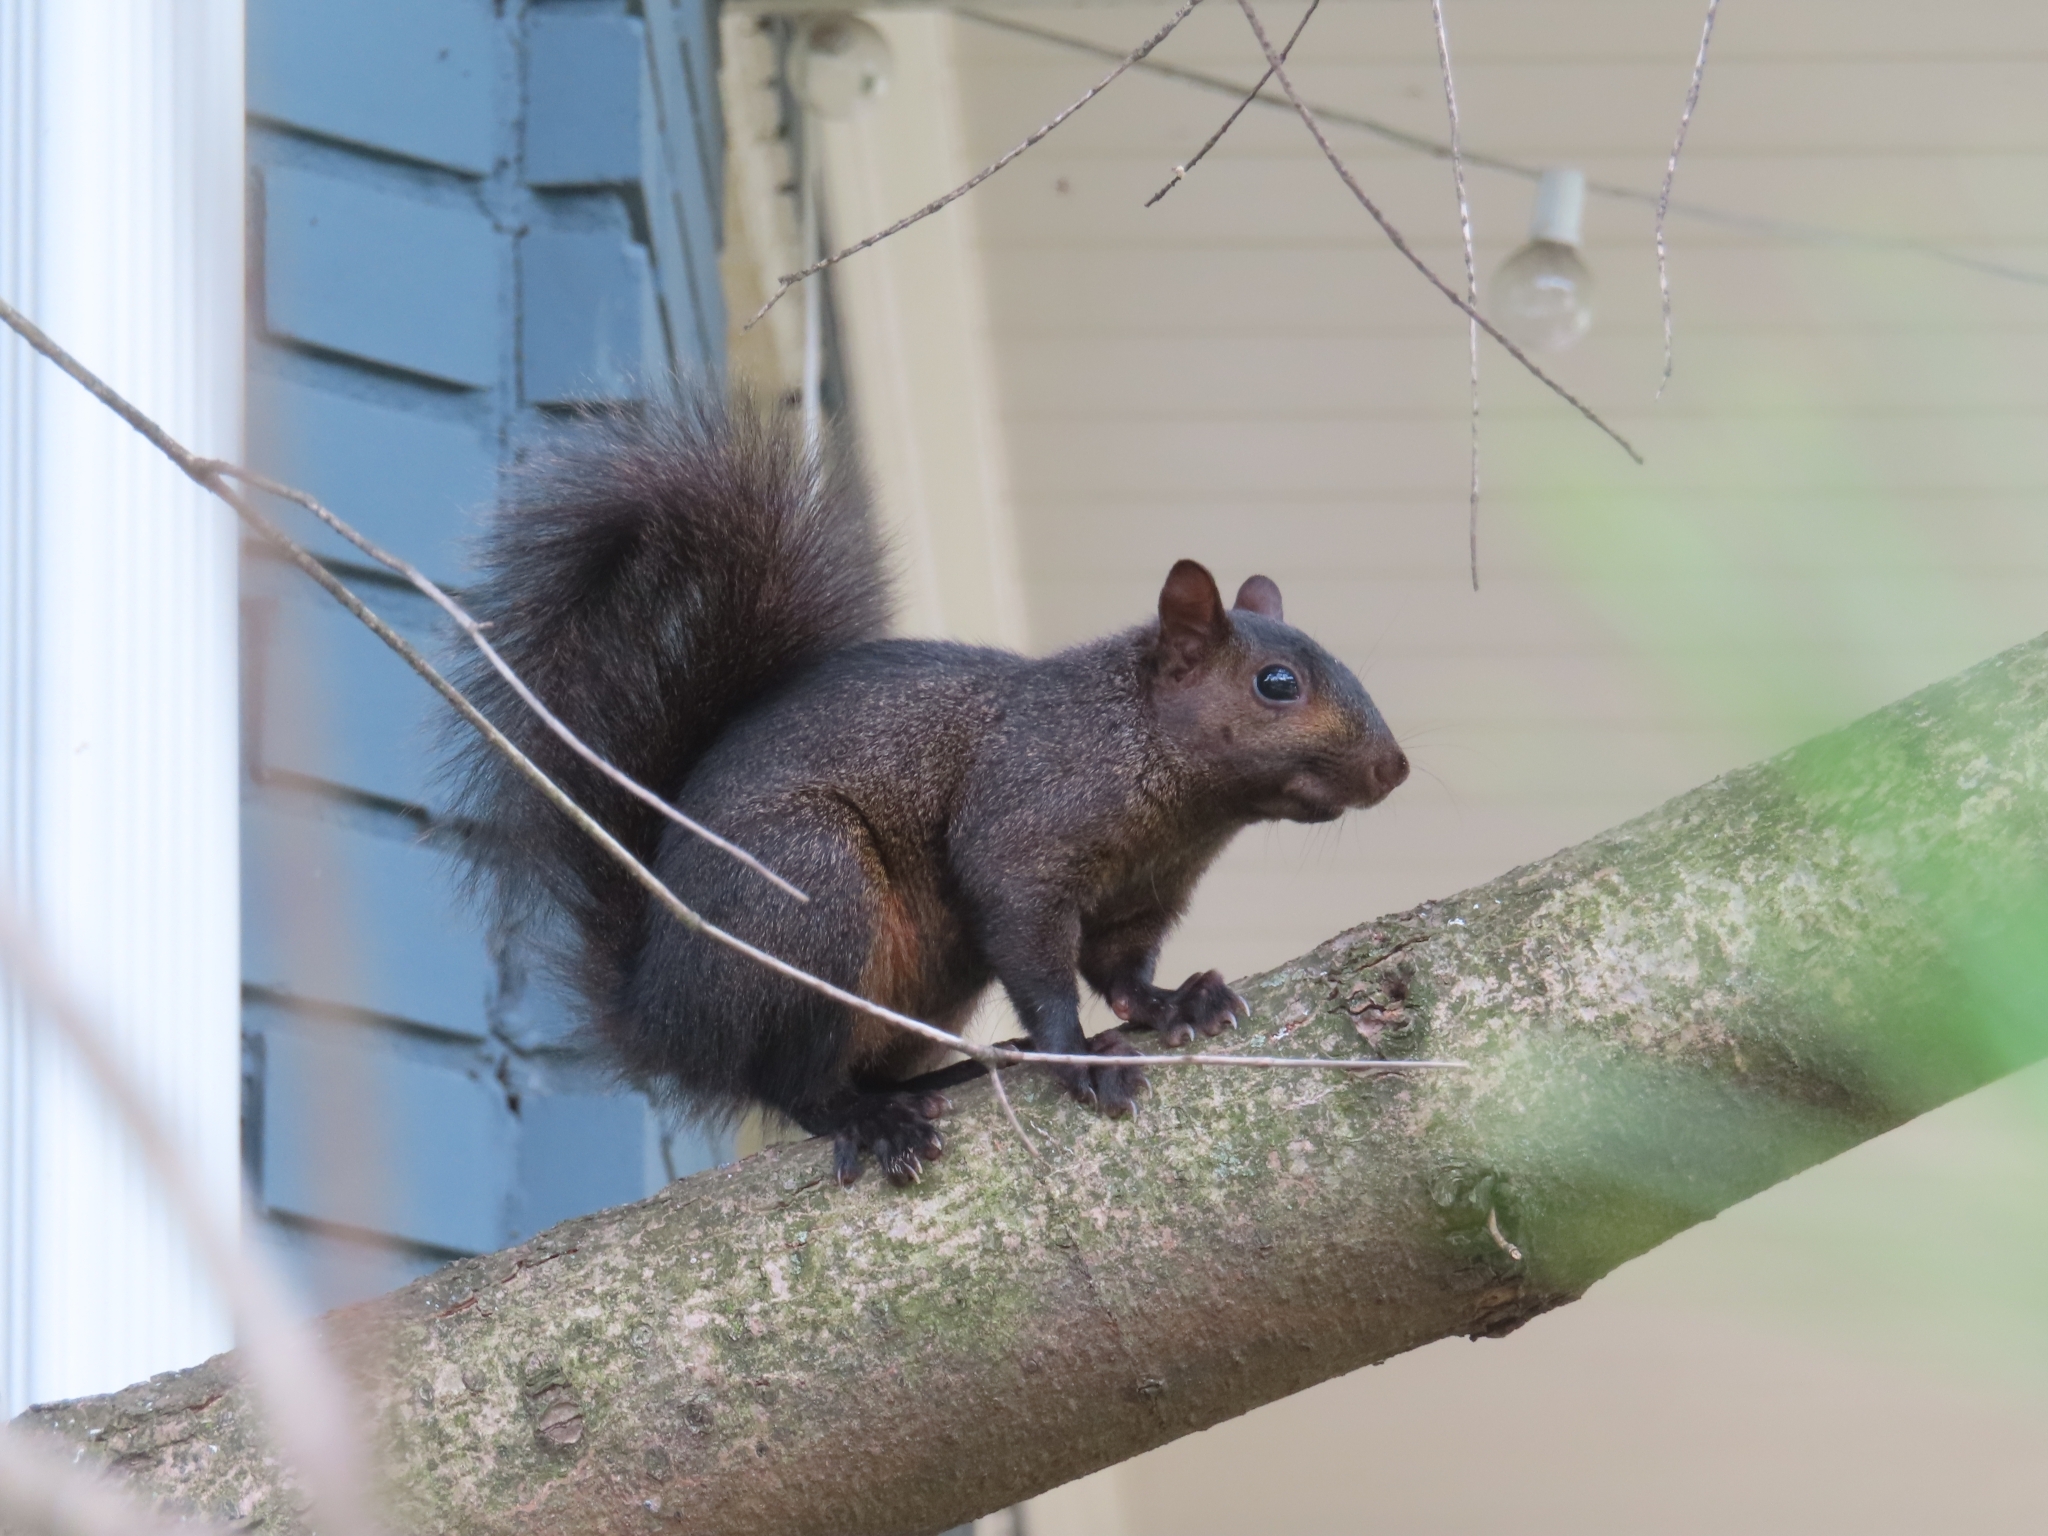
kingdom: Animalia
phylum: Chordata
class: Mammalia
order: Rodentia
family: Sciuridae
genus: Sciurus
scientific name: Sciurus carolinensis
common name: Eastern gray squirrel
